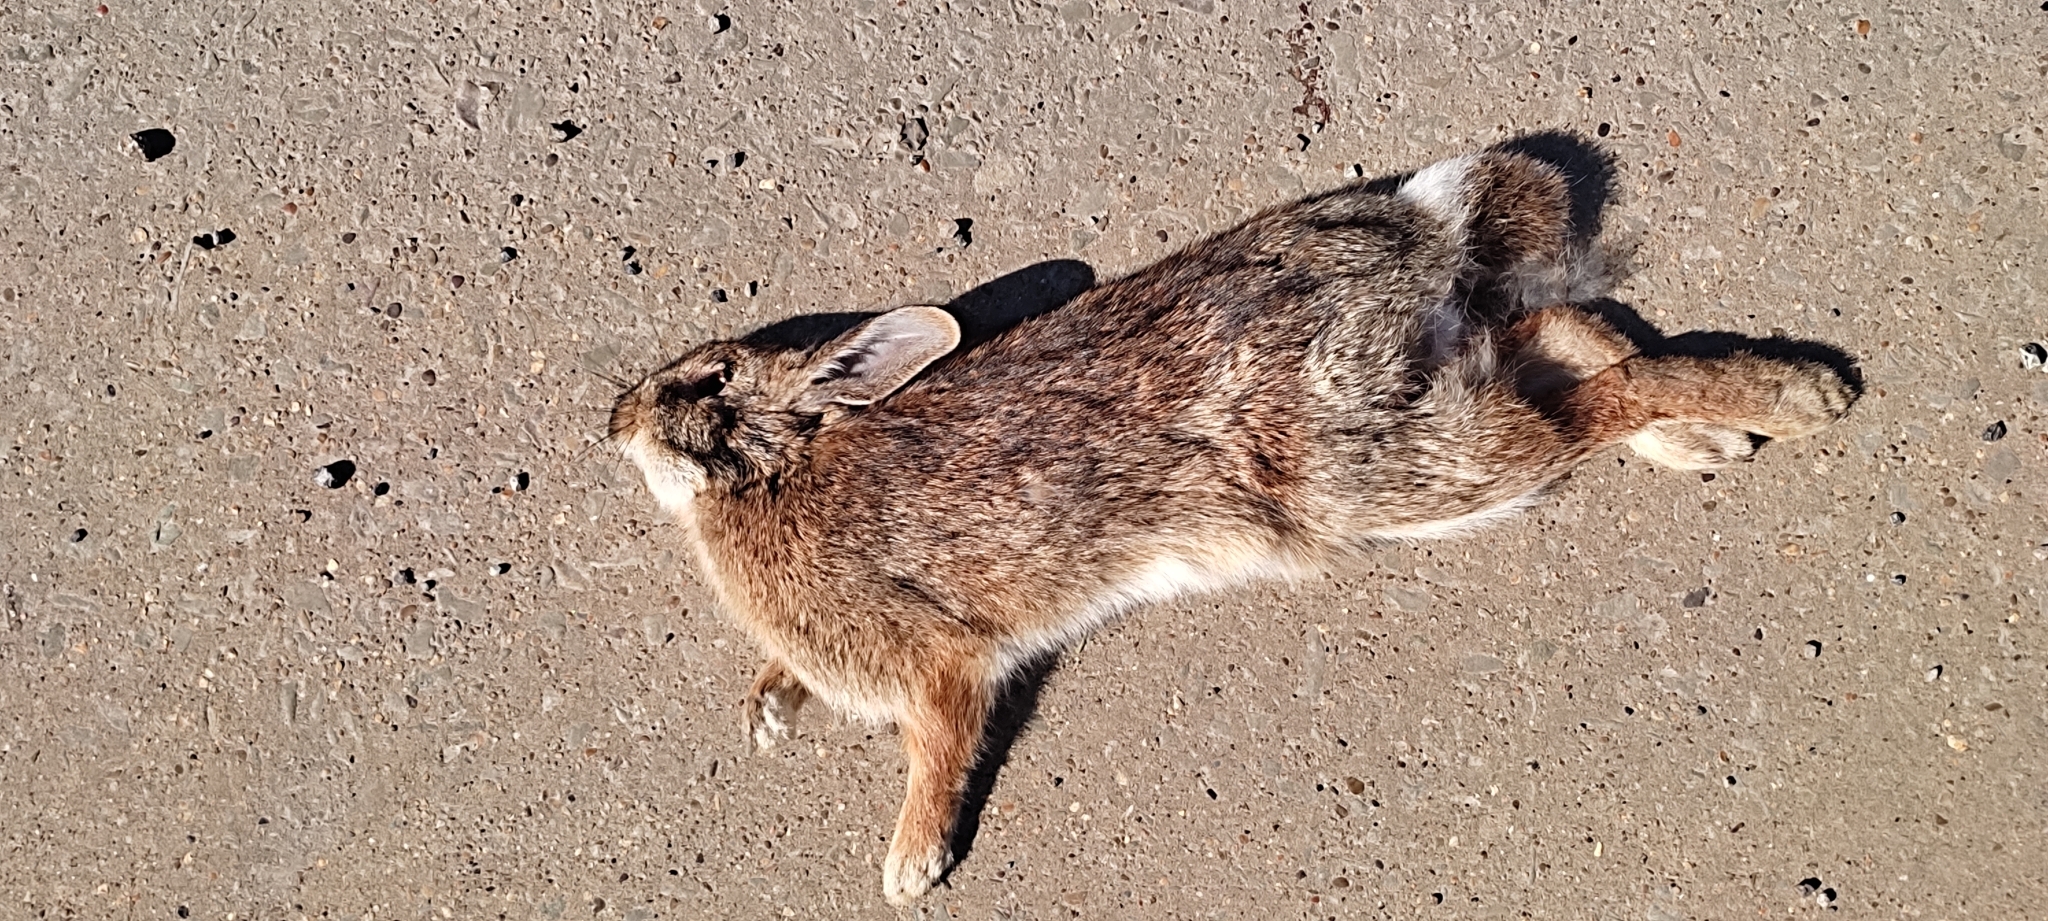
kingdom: Animalia
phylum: Chordata
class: Mammalia
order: Lagomorpha
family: Leporidae
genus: Sylvilagus
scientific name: Sylvilagus floridanus
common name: Eastern cottontail
